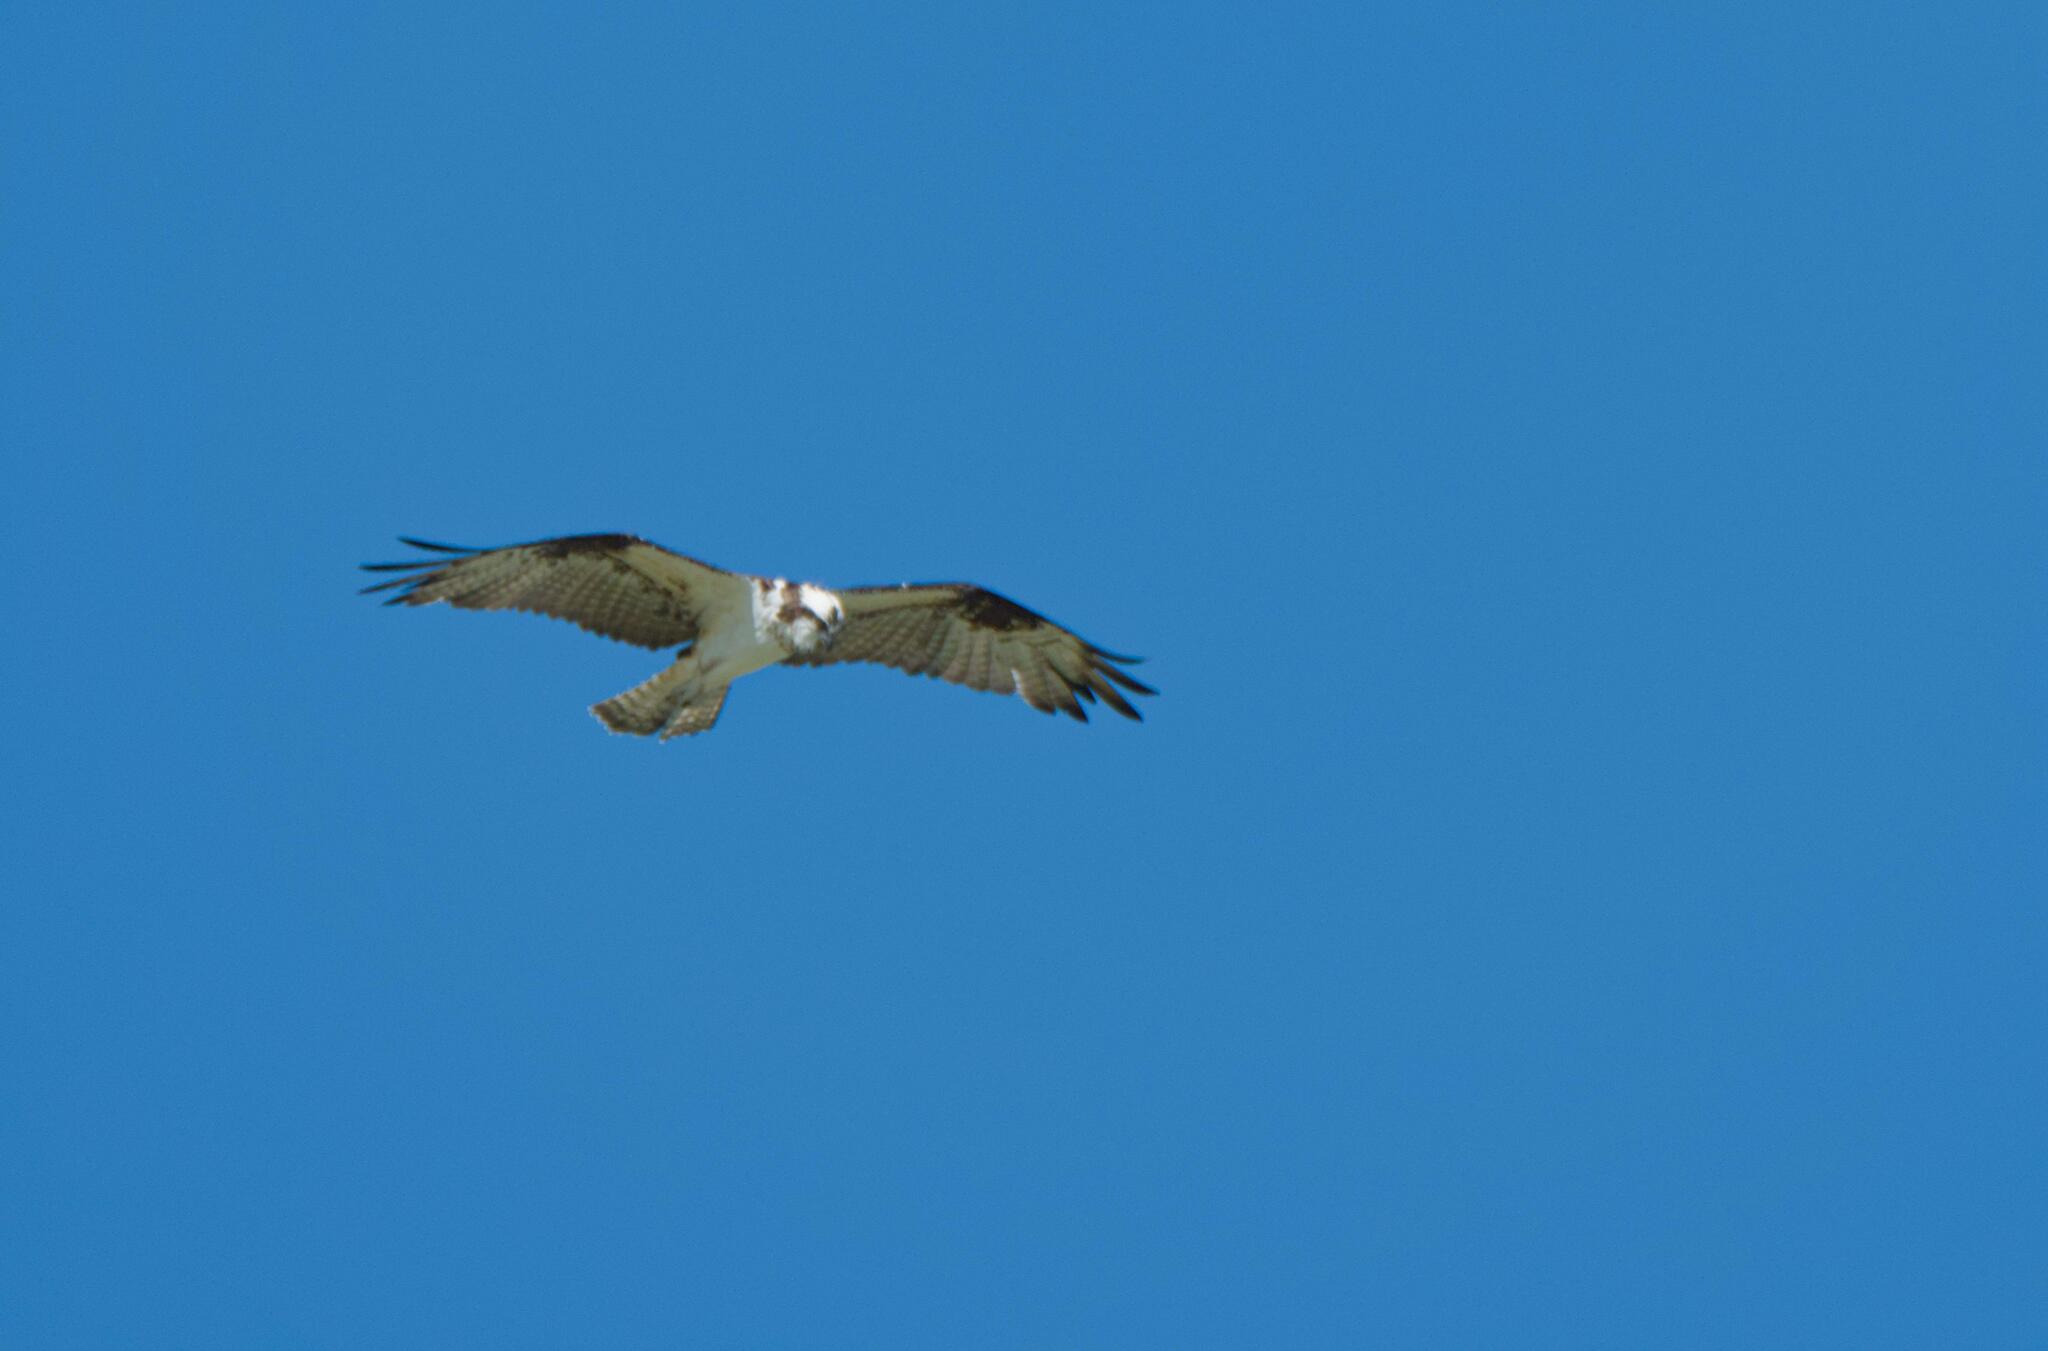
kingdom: Animalia
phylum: Chordata
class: Aves
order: Accipitriformes
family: Pandionidae
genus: Pandion
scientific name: Pandion haliaetus
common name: Osprey
